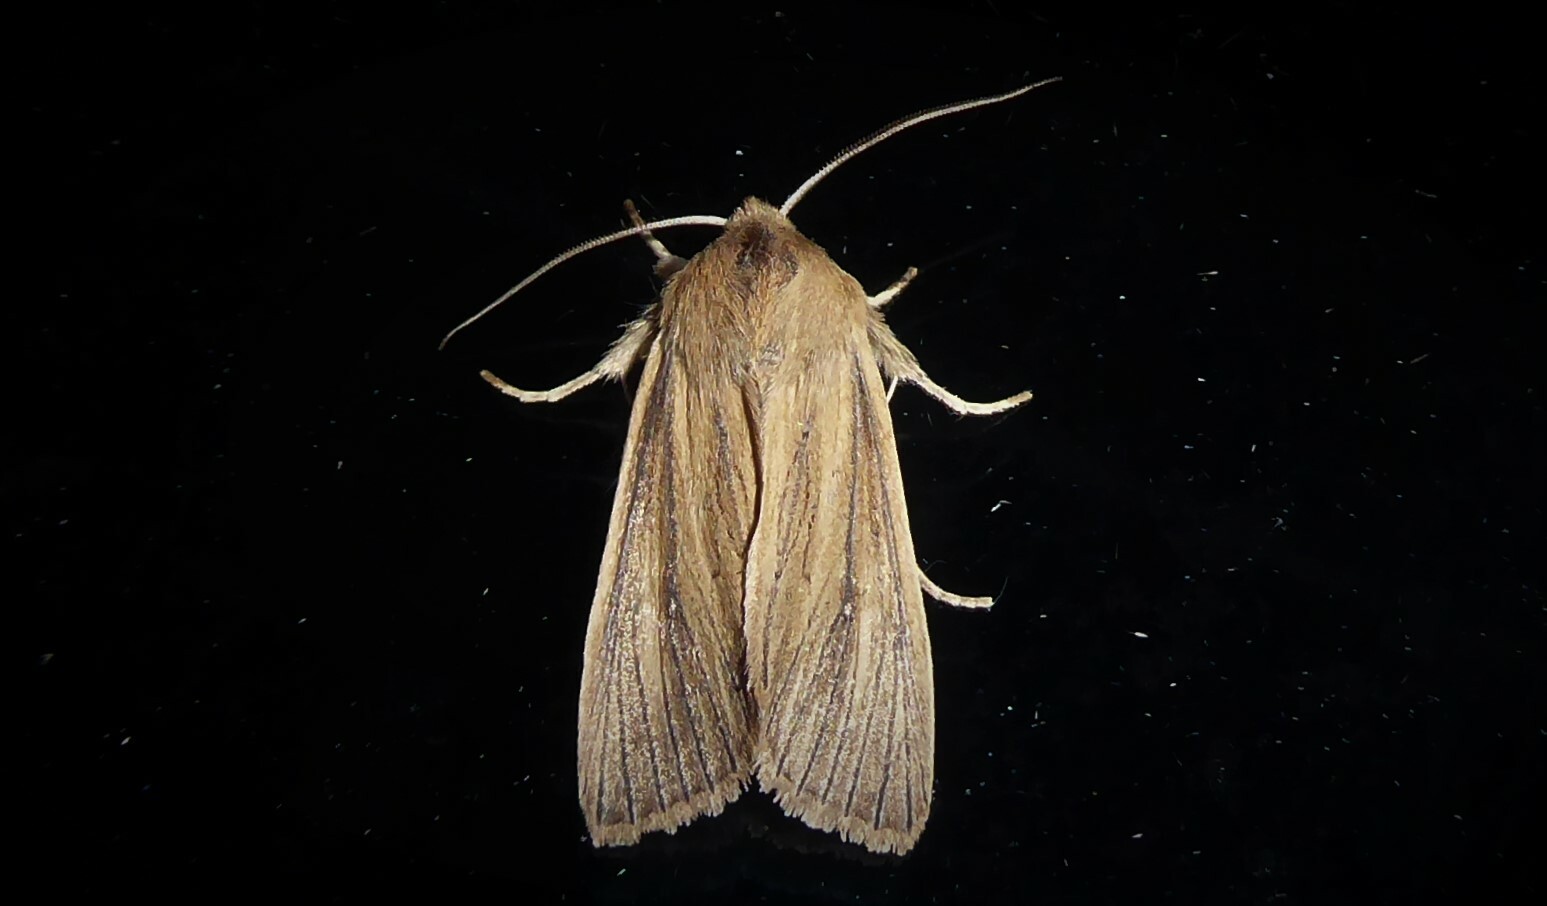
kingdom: Animalia
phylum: Arthropoda
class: Insecta
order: Lepidoptera
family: Noctuidae
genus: Ichneutica
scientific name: Ichneutica arotis
